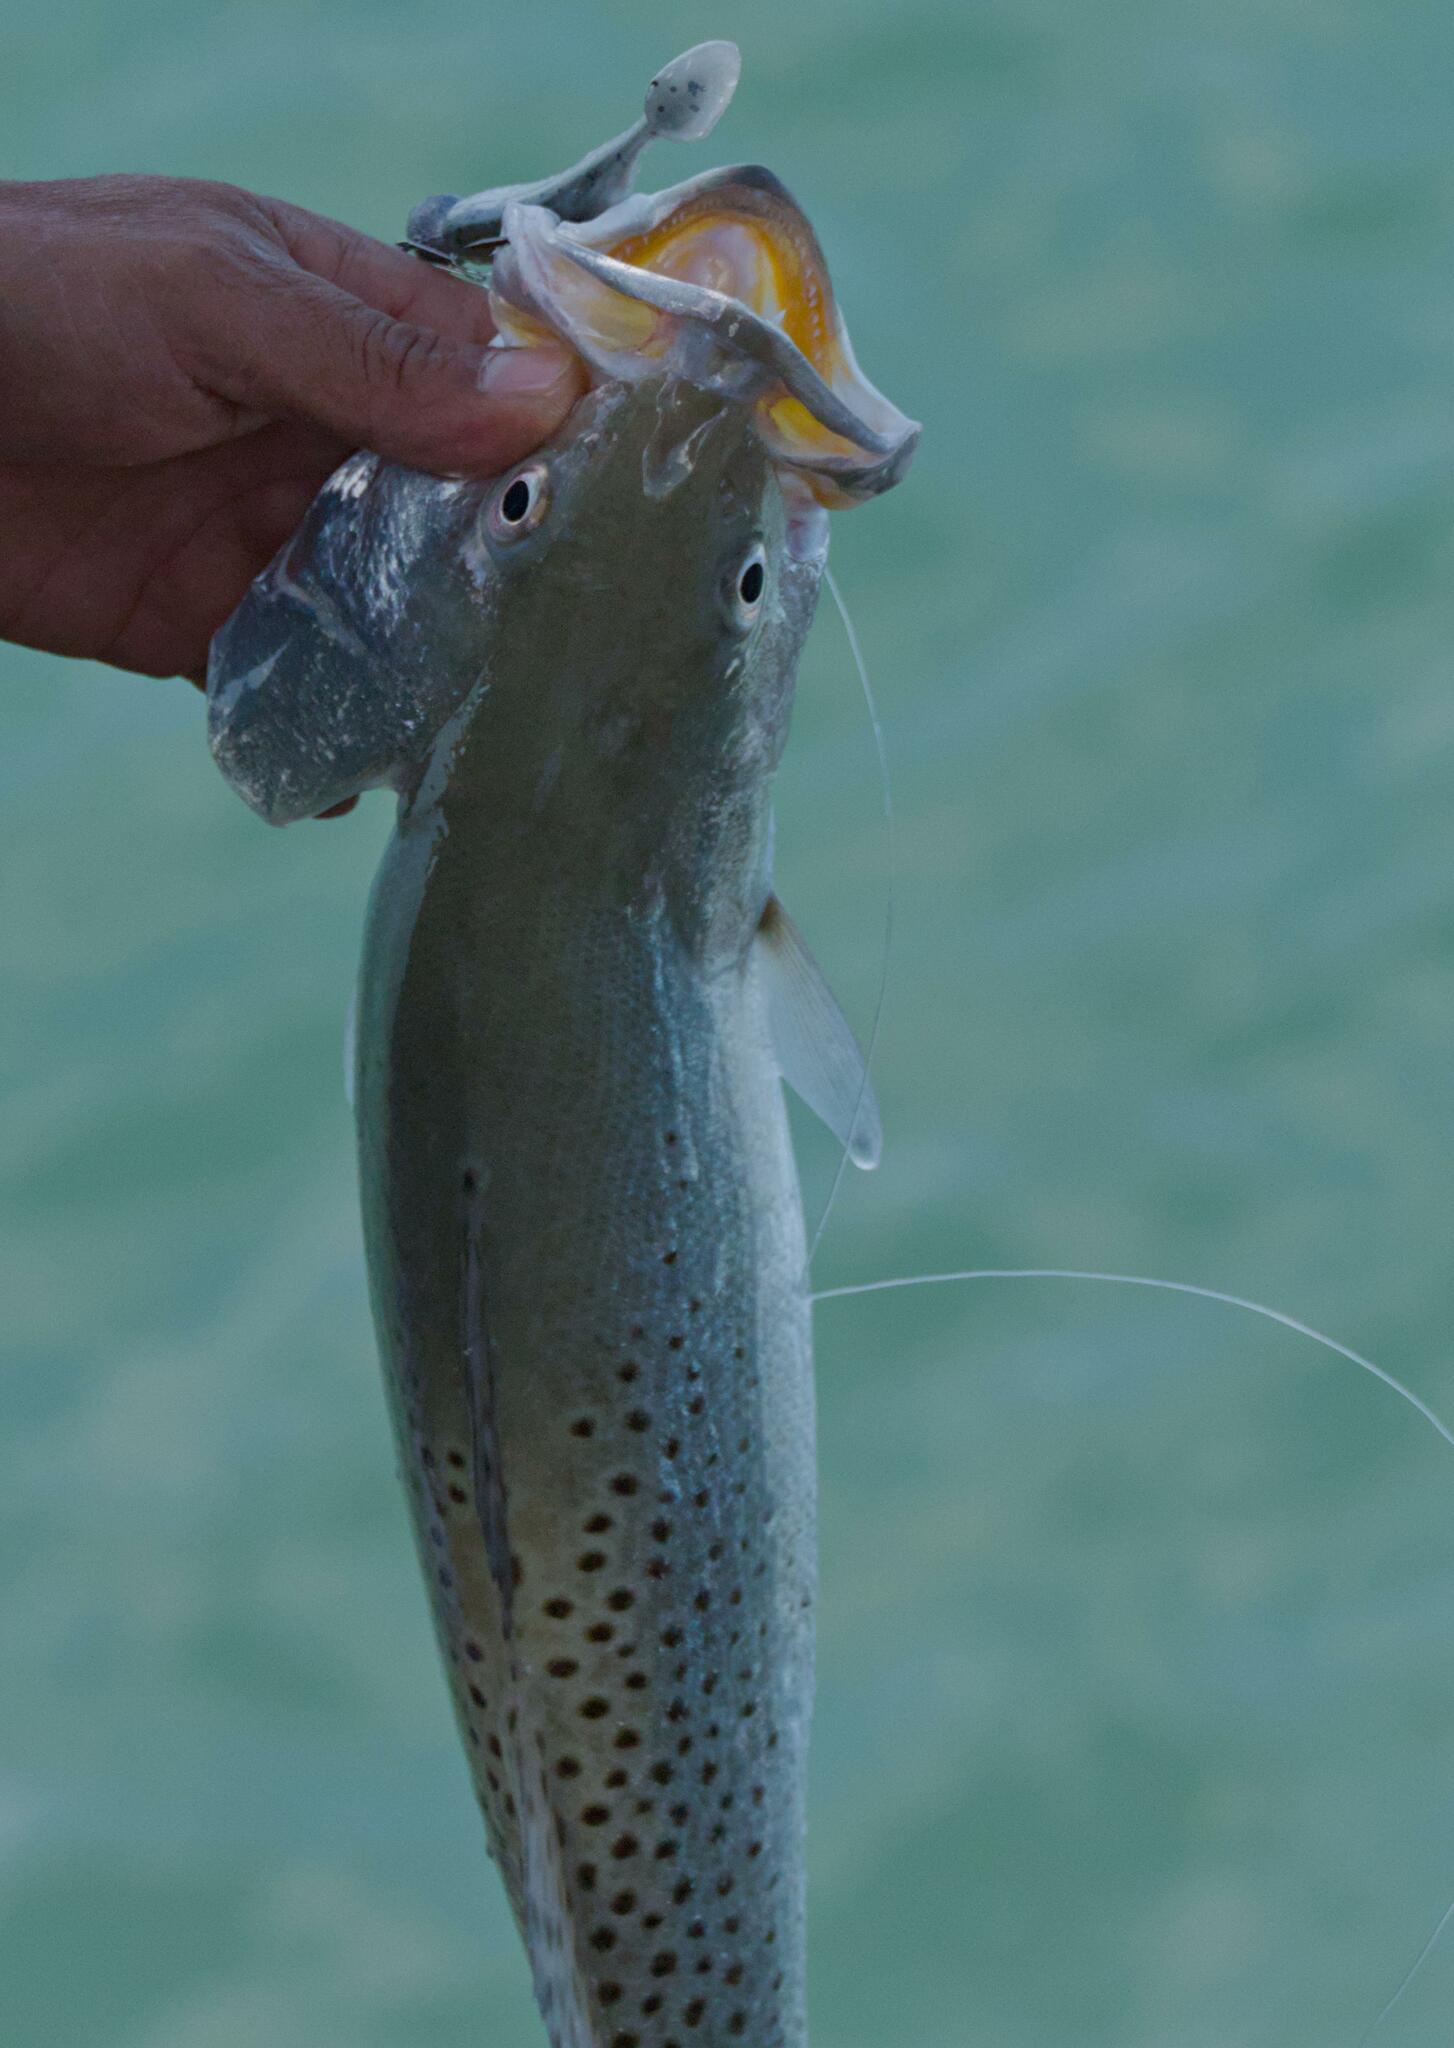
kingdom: Animalia
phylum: Chordata
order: Perciformes
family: Sciaenidae
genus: Cynoscion
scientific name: Cynoscion nebulosus
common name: Spotted seatrout
